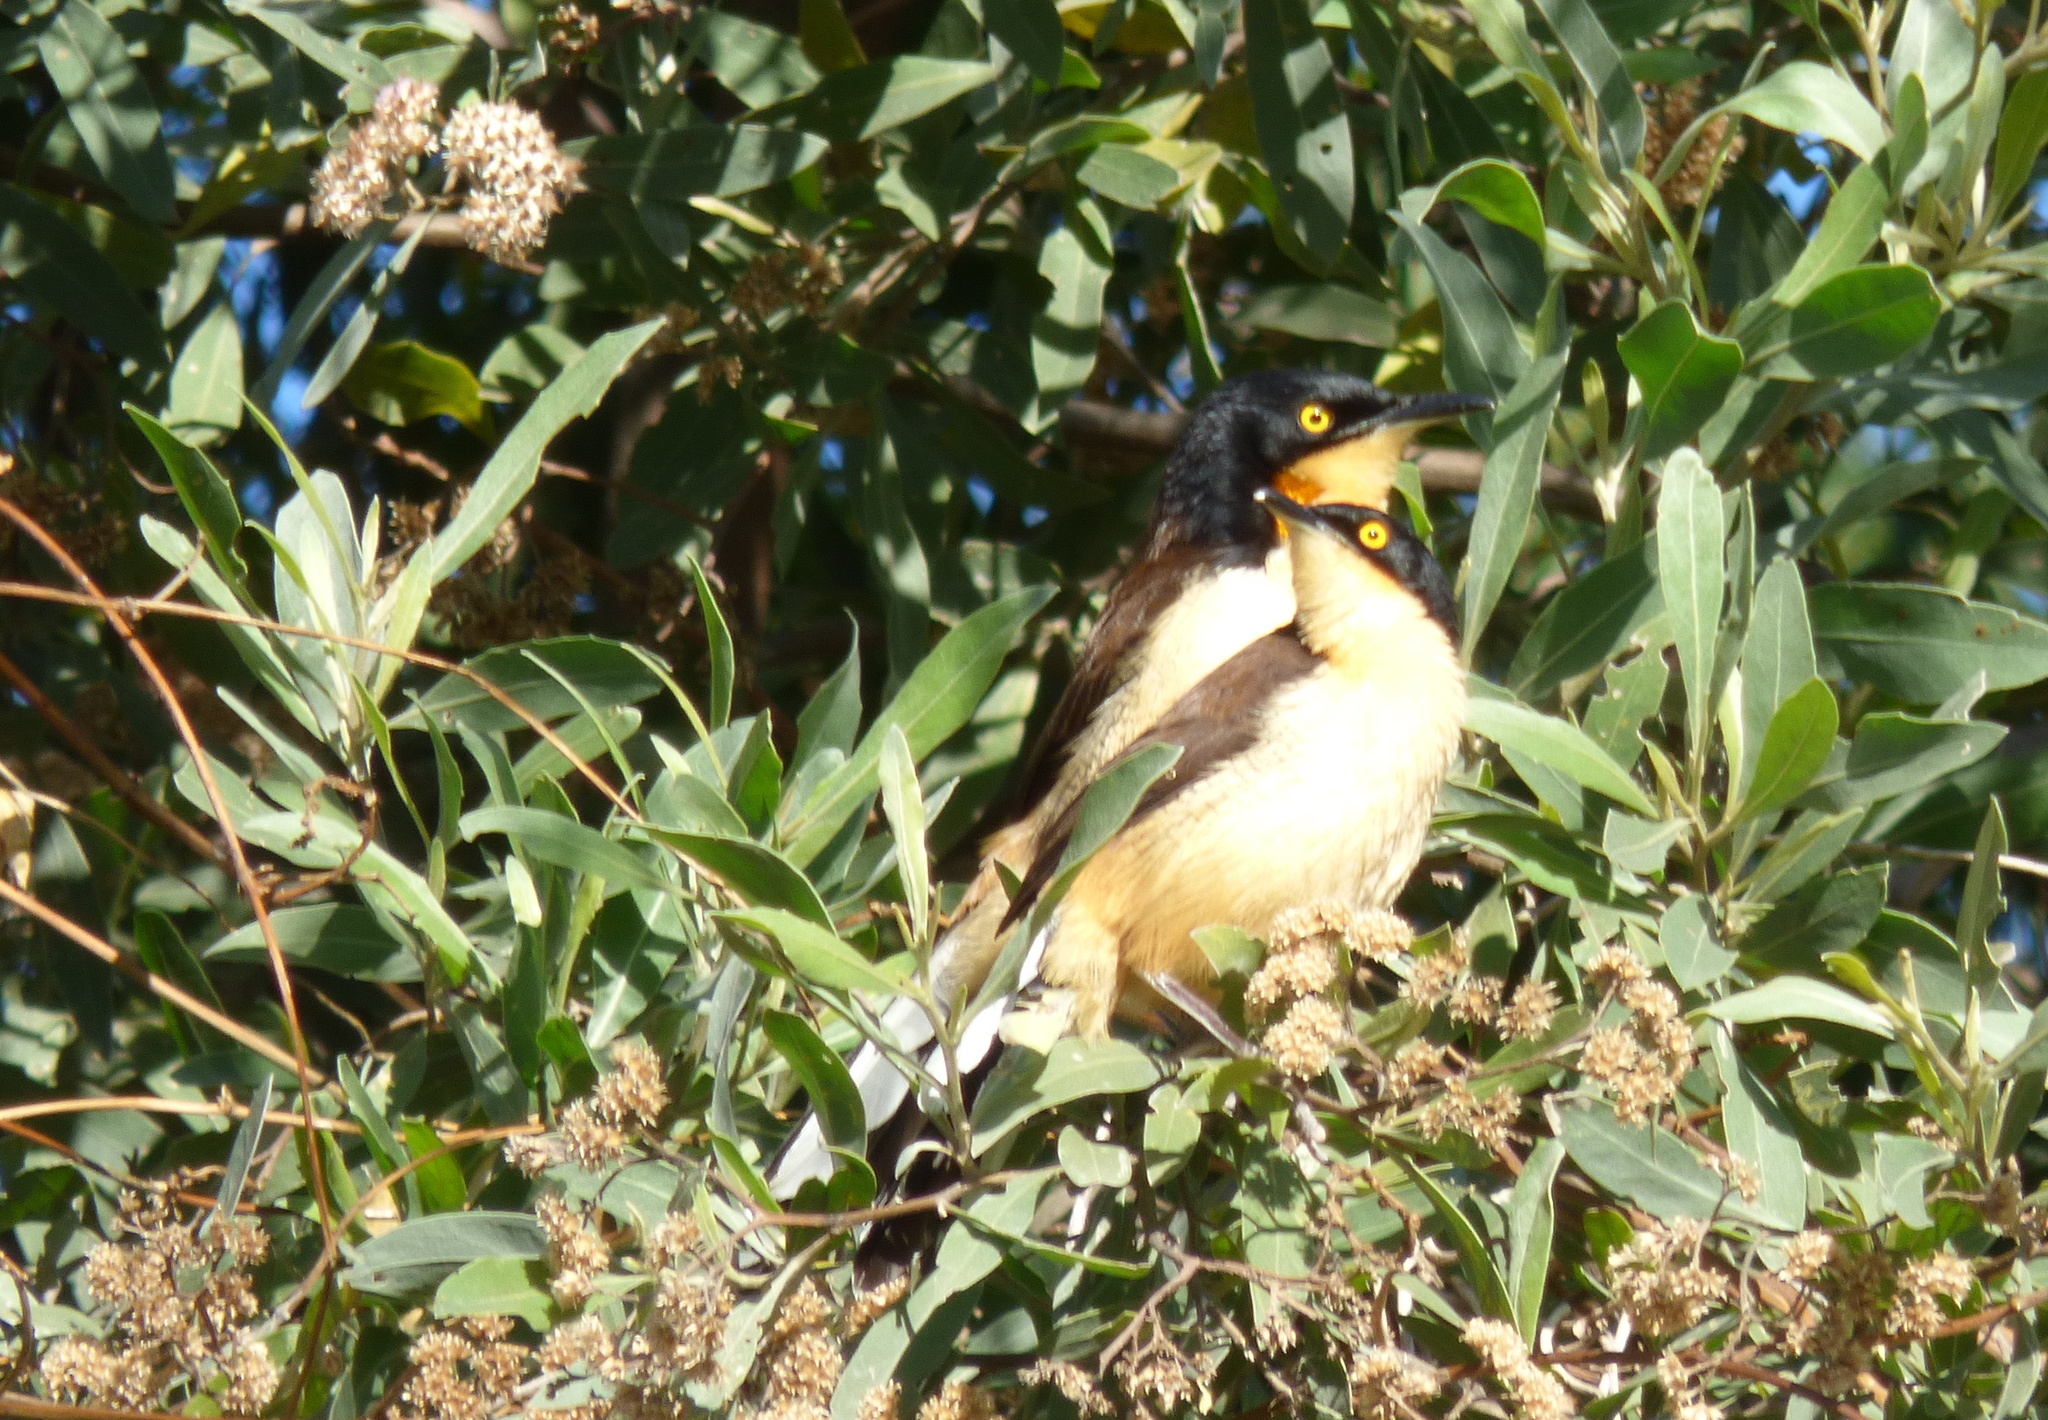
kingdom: Animalia
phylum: Chordata
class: Aves
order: Passeriformes
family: Donacobiidae
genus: Donacobius
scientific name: Donacobius atricapilla
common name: Black-capped donacobius
